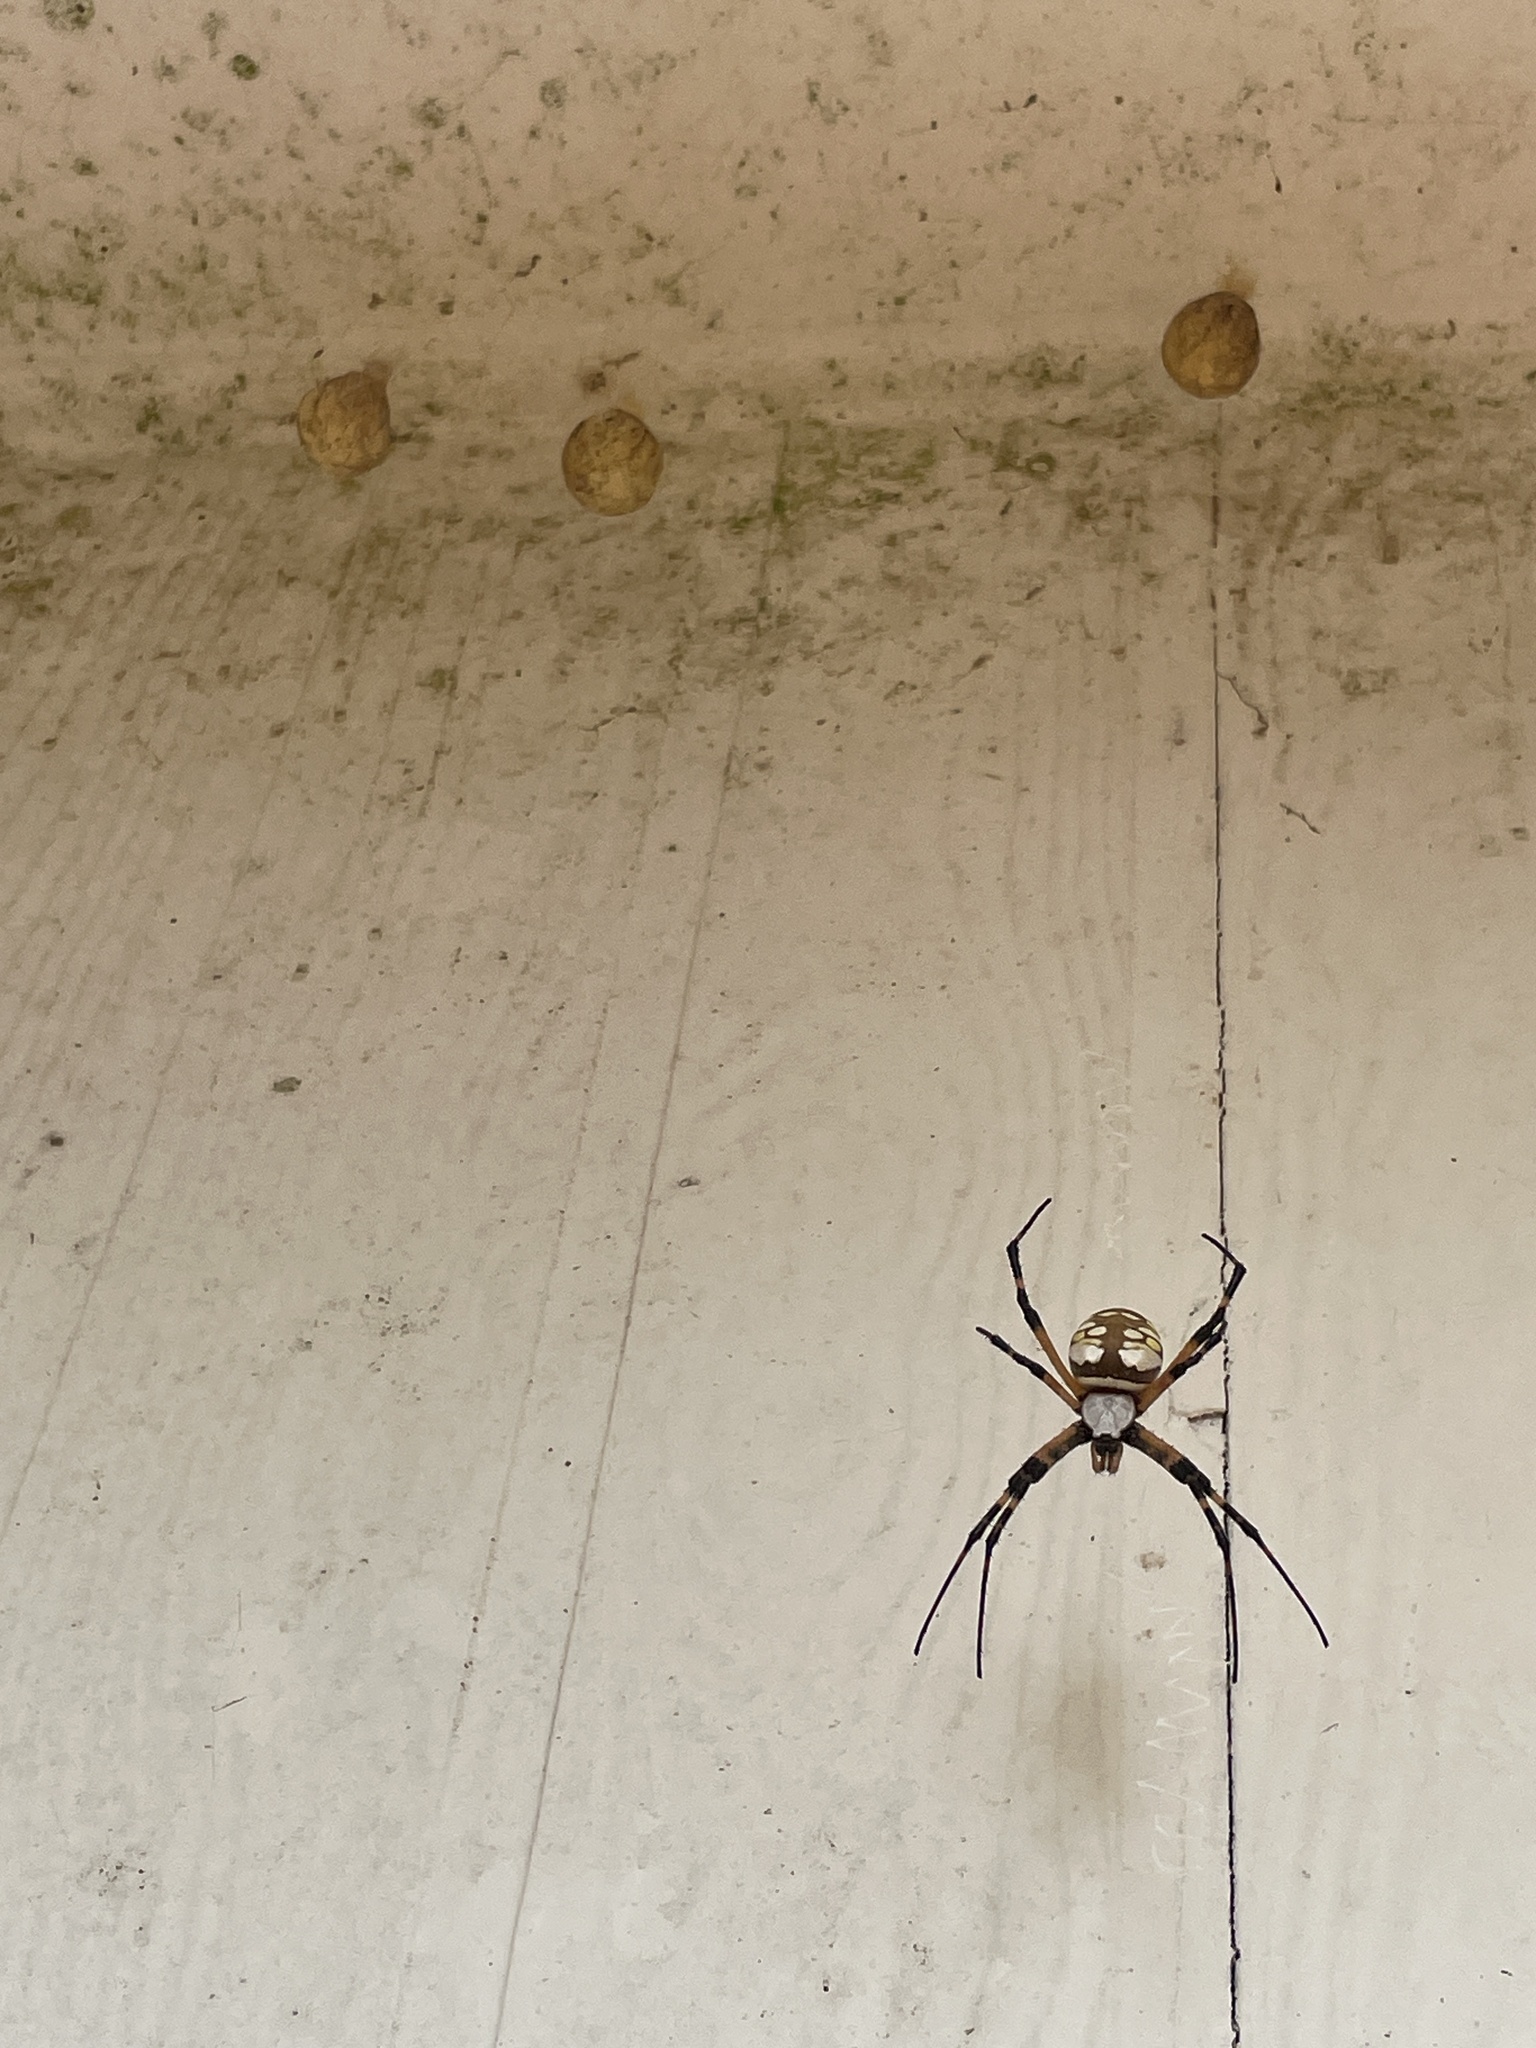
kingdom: Animalia
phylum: Arthropoda
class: Arachnida
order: Araneae
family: Araneidae
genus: Argiope
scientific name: Argiope aurantia
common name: Orb weavers
